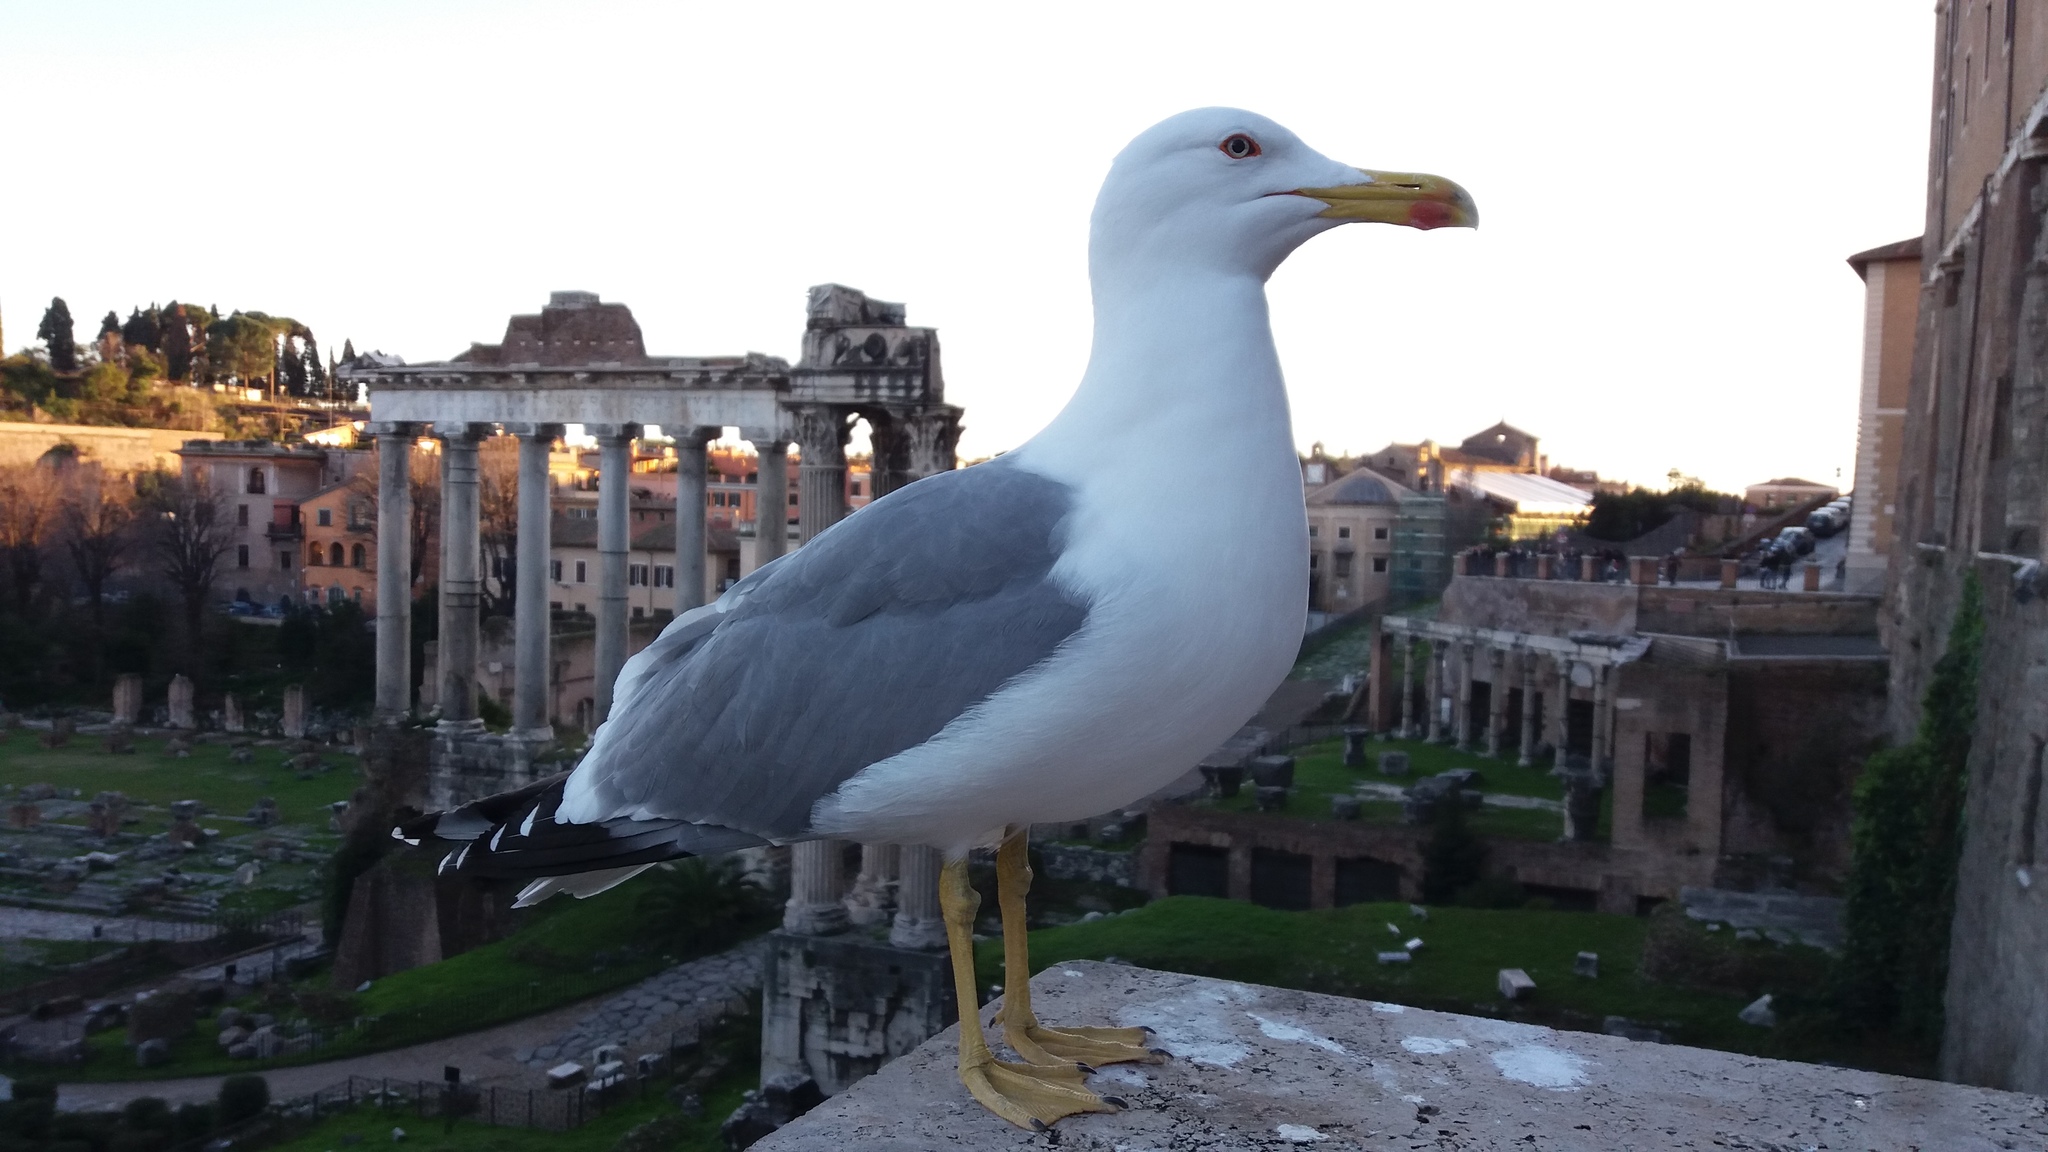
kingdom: Animalia
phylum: Chordata
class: Aves
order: Charadriiformes
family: Laridae
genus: Larus
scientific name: Larus michahellis
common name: Yellow-legged gull
